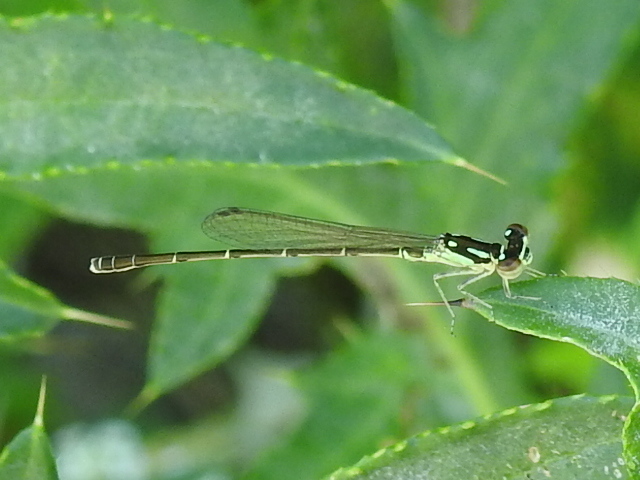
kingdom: Animalia
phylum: Arthropoda
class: Insecta
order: Odonata
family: Coenagrionidae
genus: Ischnura
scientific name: Ischnura posita
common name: Fragile forktail
